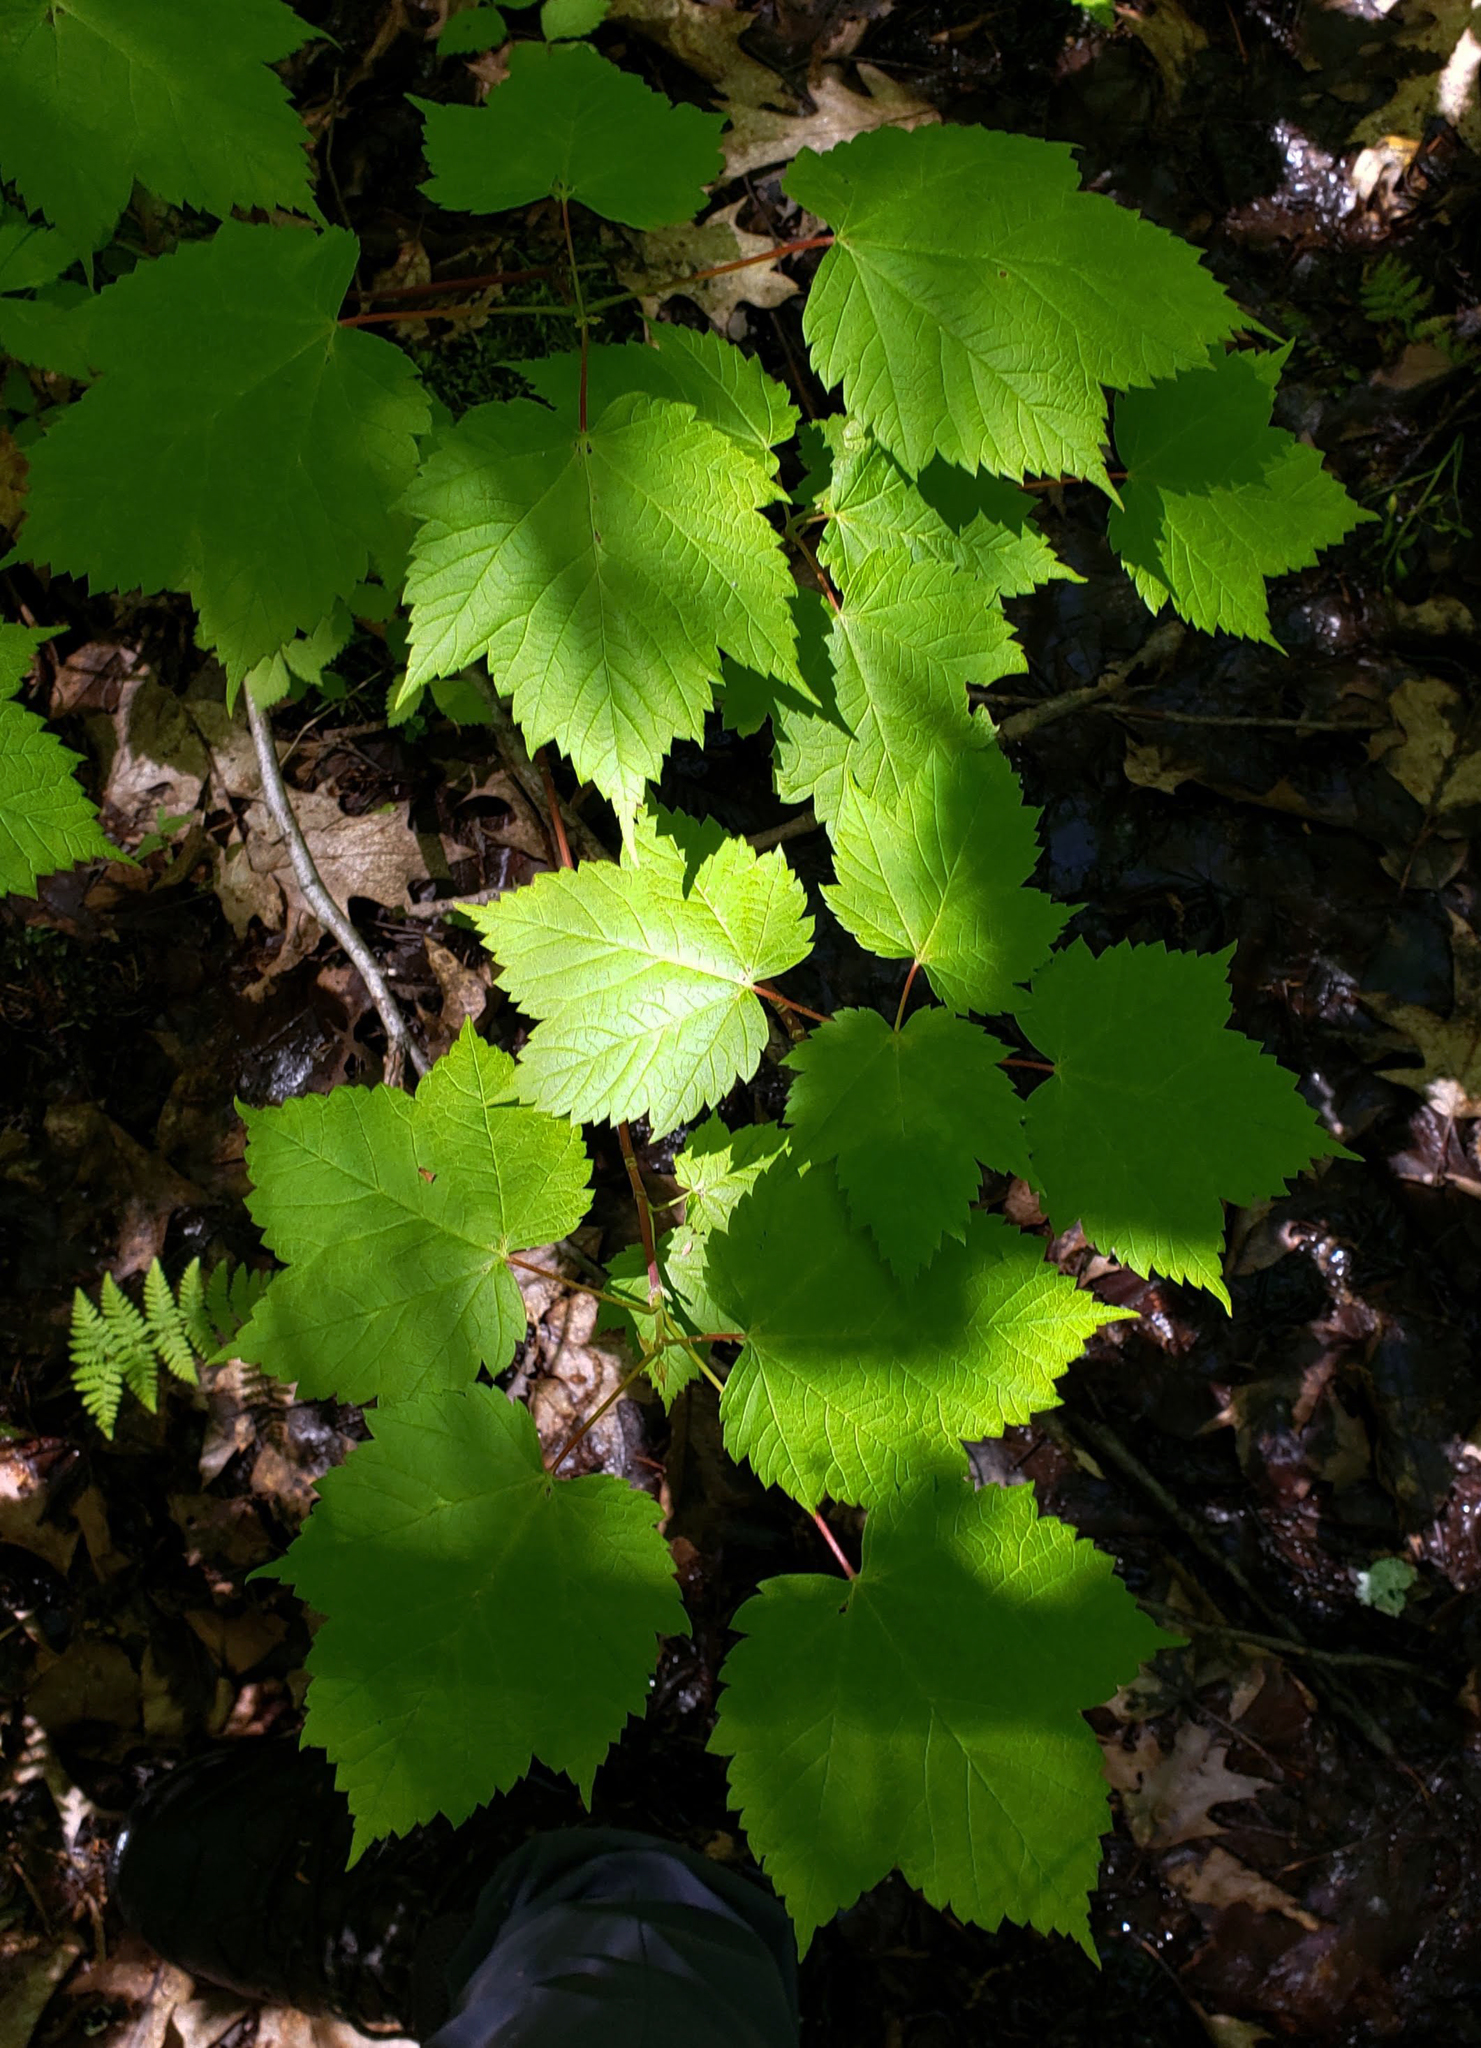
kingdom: Plantae
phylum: Tracheophyta
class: Magnoliopsida
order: Sapindales
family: Sapindaceae
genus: Acer
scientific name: Acer spicatum
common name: Mountain maple
